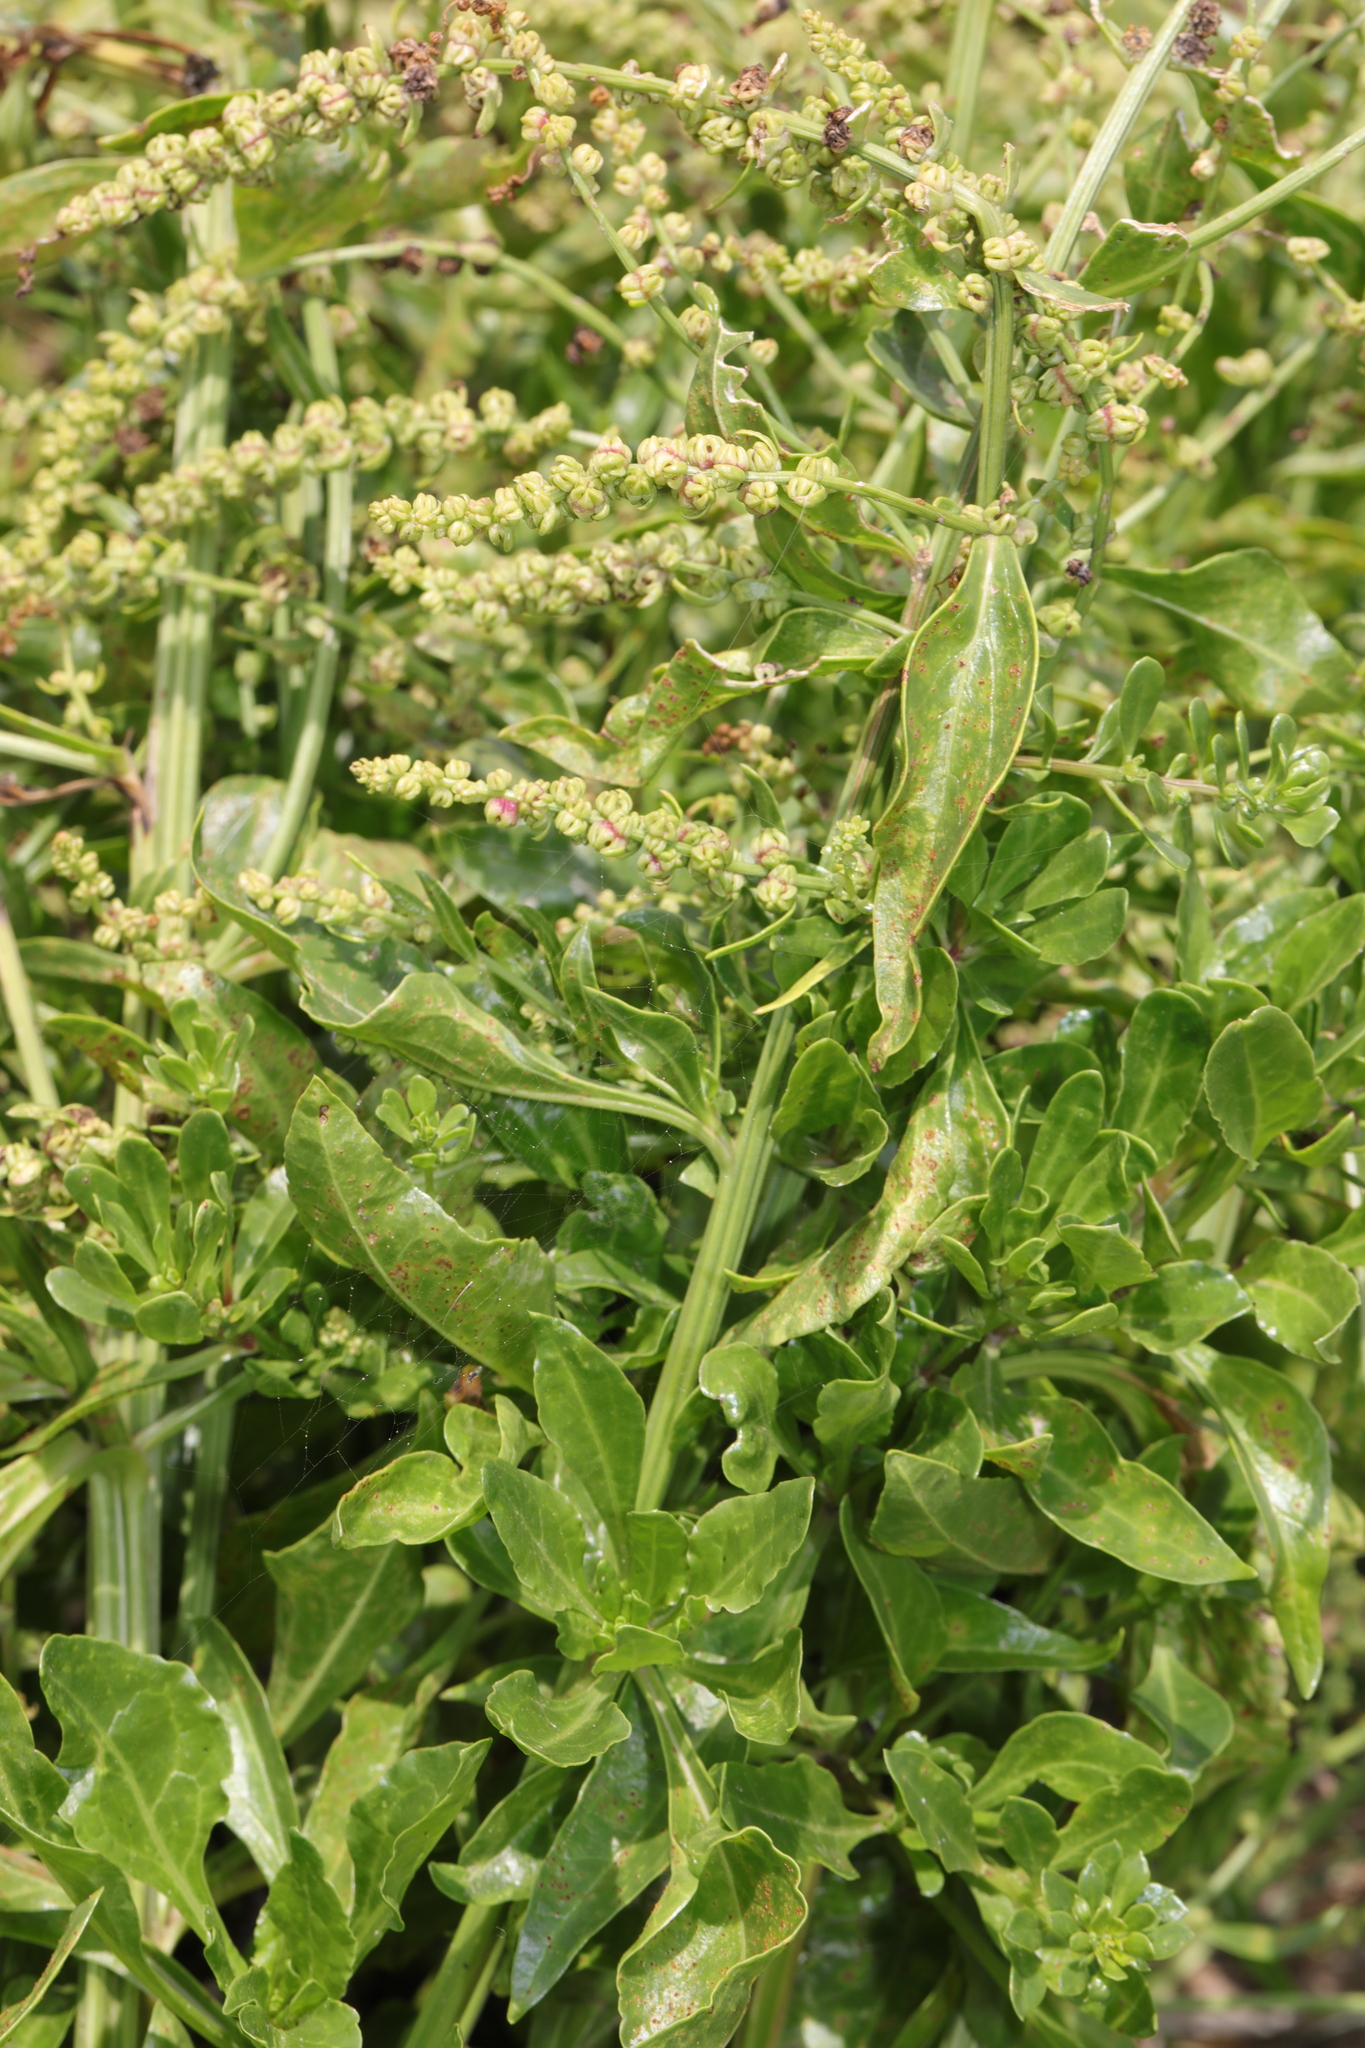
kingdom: Plantae
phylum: Tracheophyta
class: Magnoliopsida
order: Caryophyllales
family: Amaranthaceae
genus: Beta
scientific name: Beta vulgaris
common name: Beet
